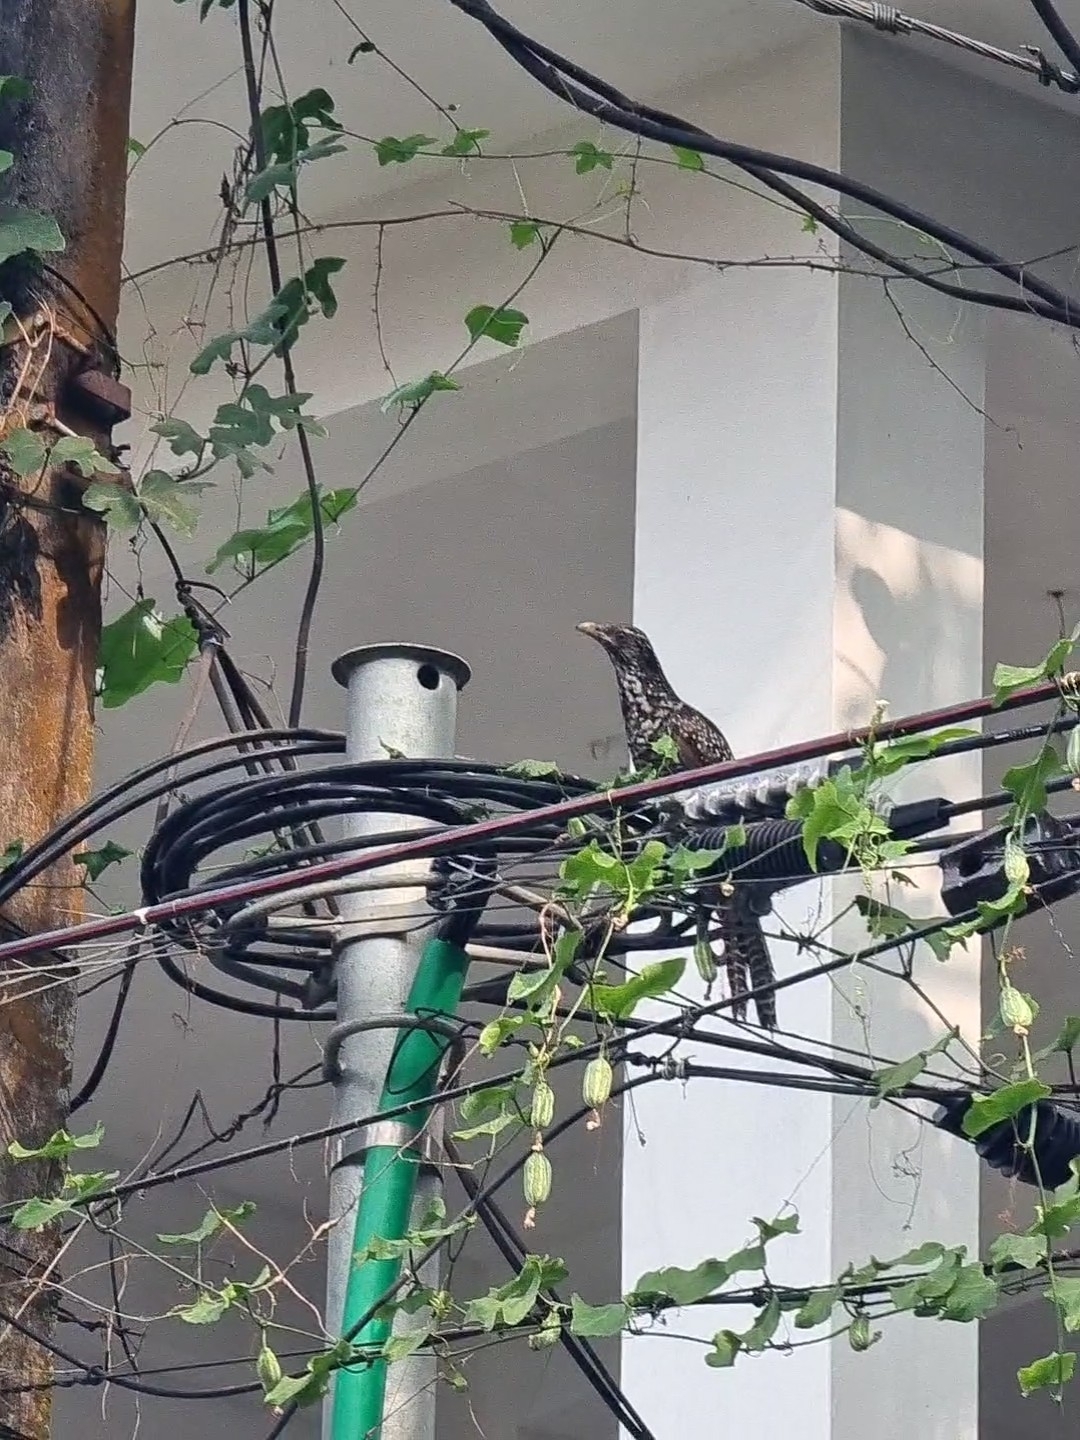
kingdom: Animalia
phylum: Chordata
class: Aves
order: Cuculiformes
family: Cuculidae
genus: Eudynamys
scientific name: Eudynamys scolopaceus
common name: Asian koel
